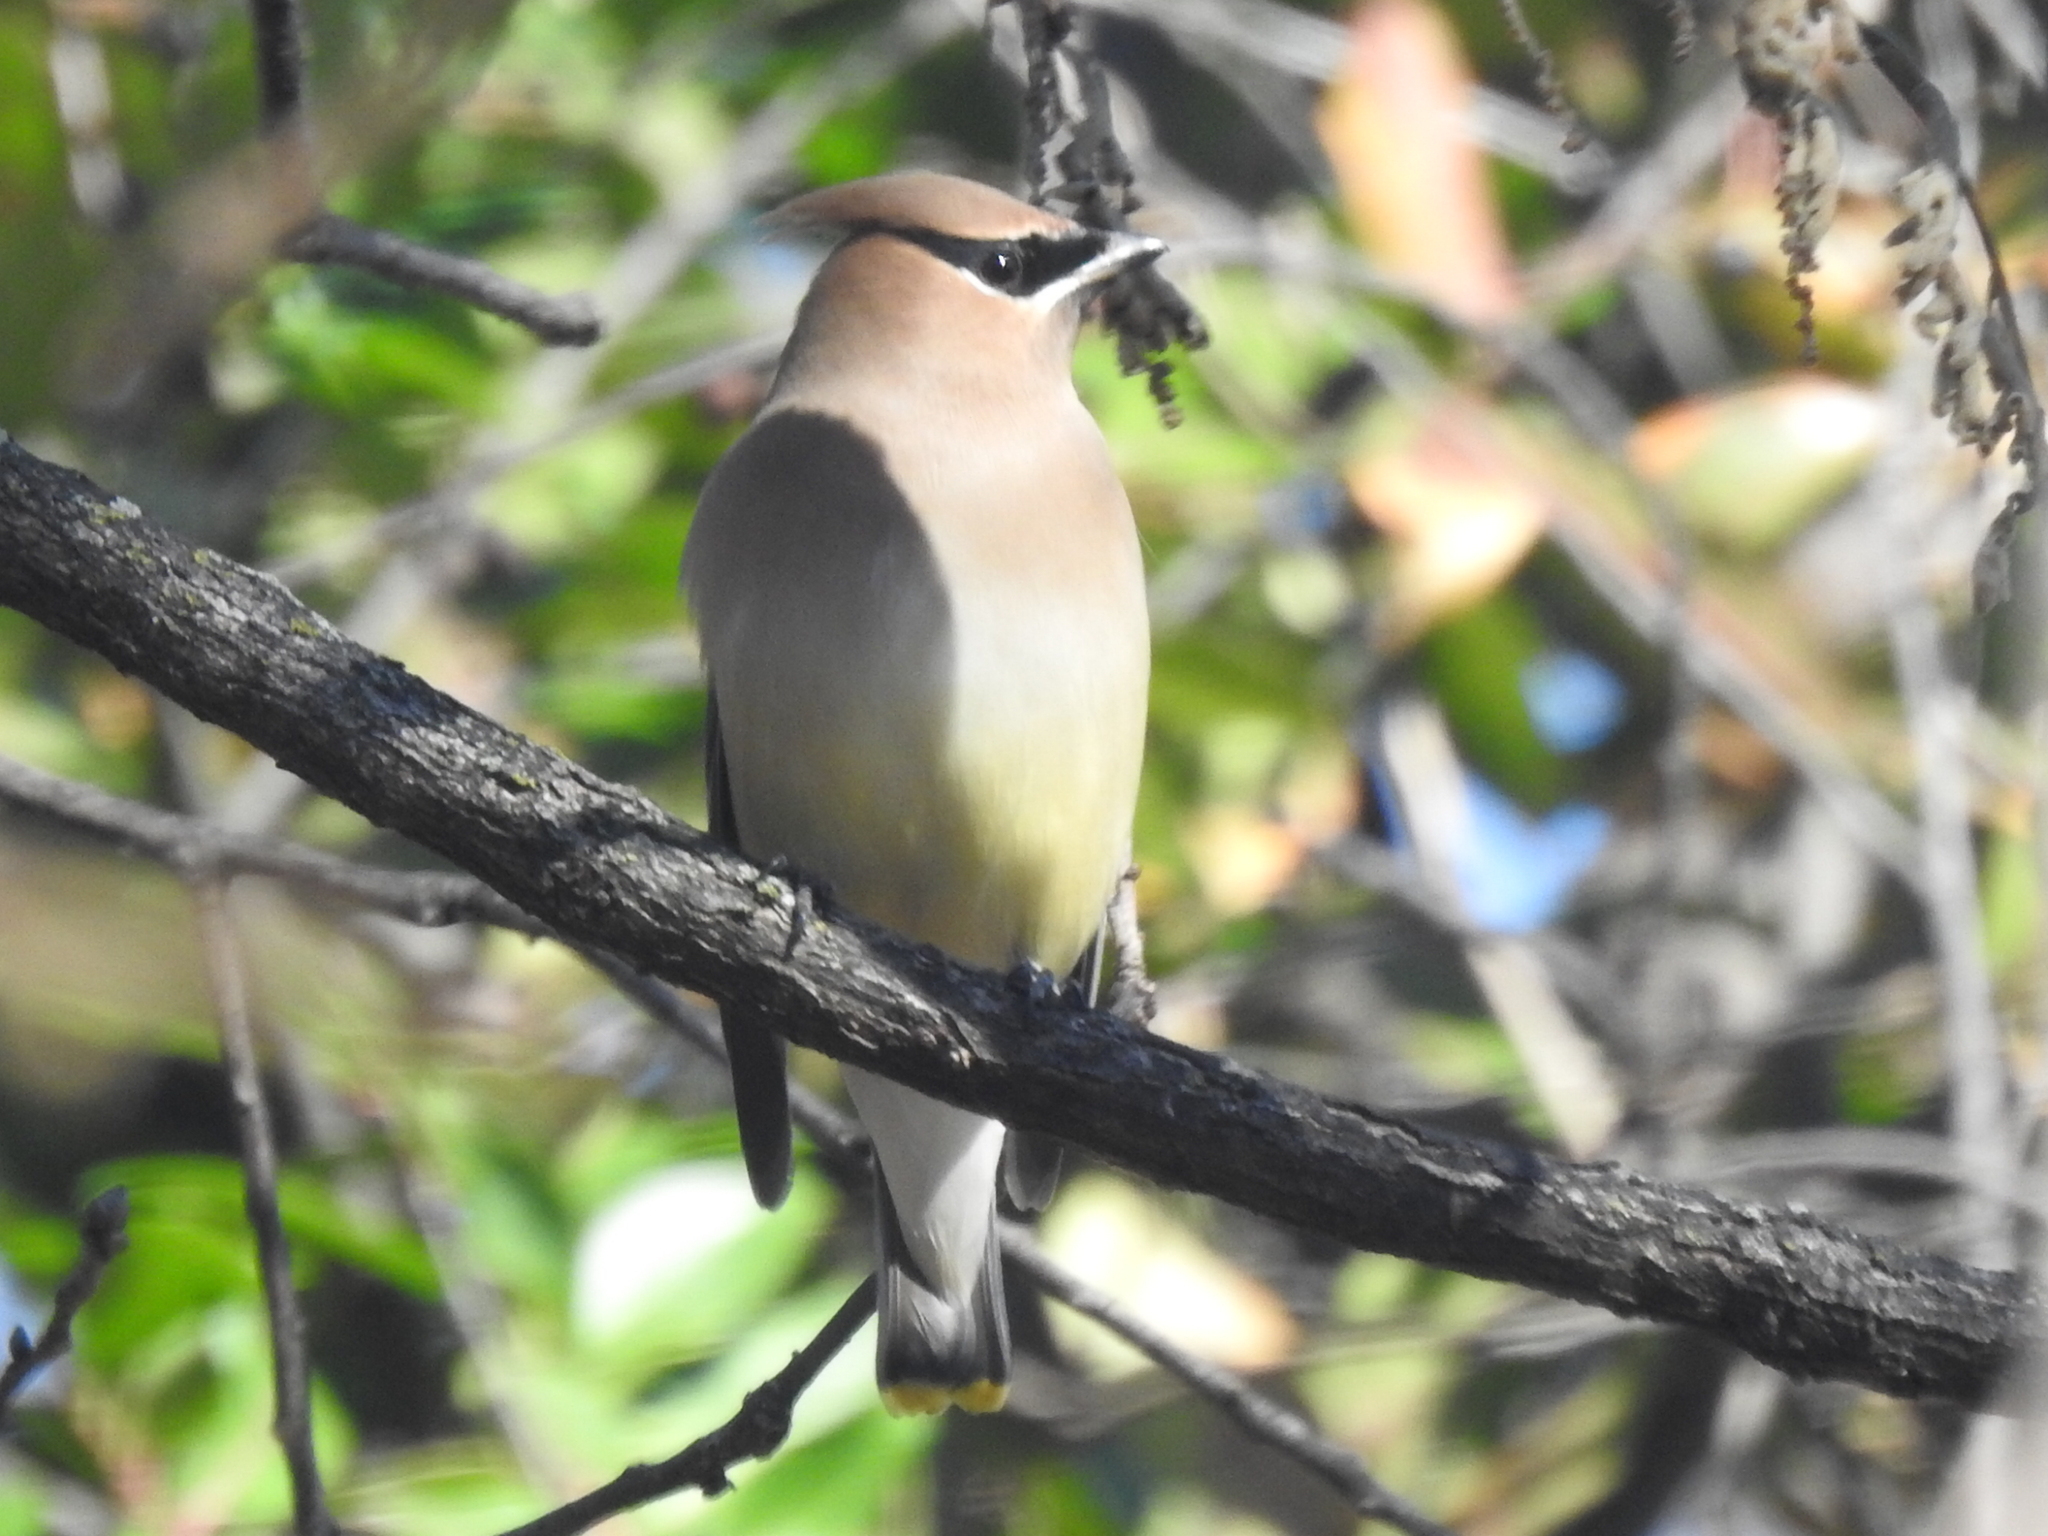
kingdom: Animalia
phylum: Chordata
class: Aves
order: Passeriformes
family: Bombycillidae
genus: Bombycilla
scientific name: Bombycilla cedrorum
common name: Cedar waxwing
